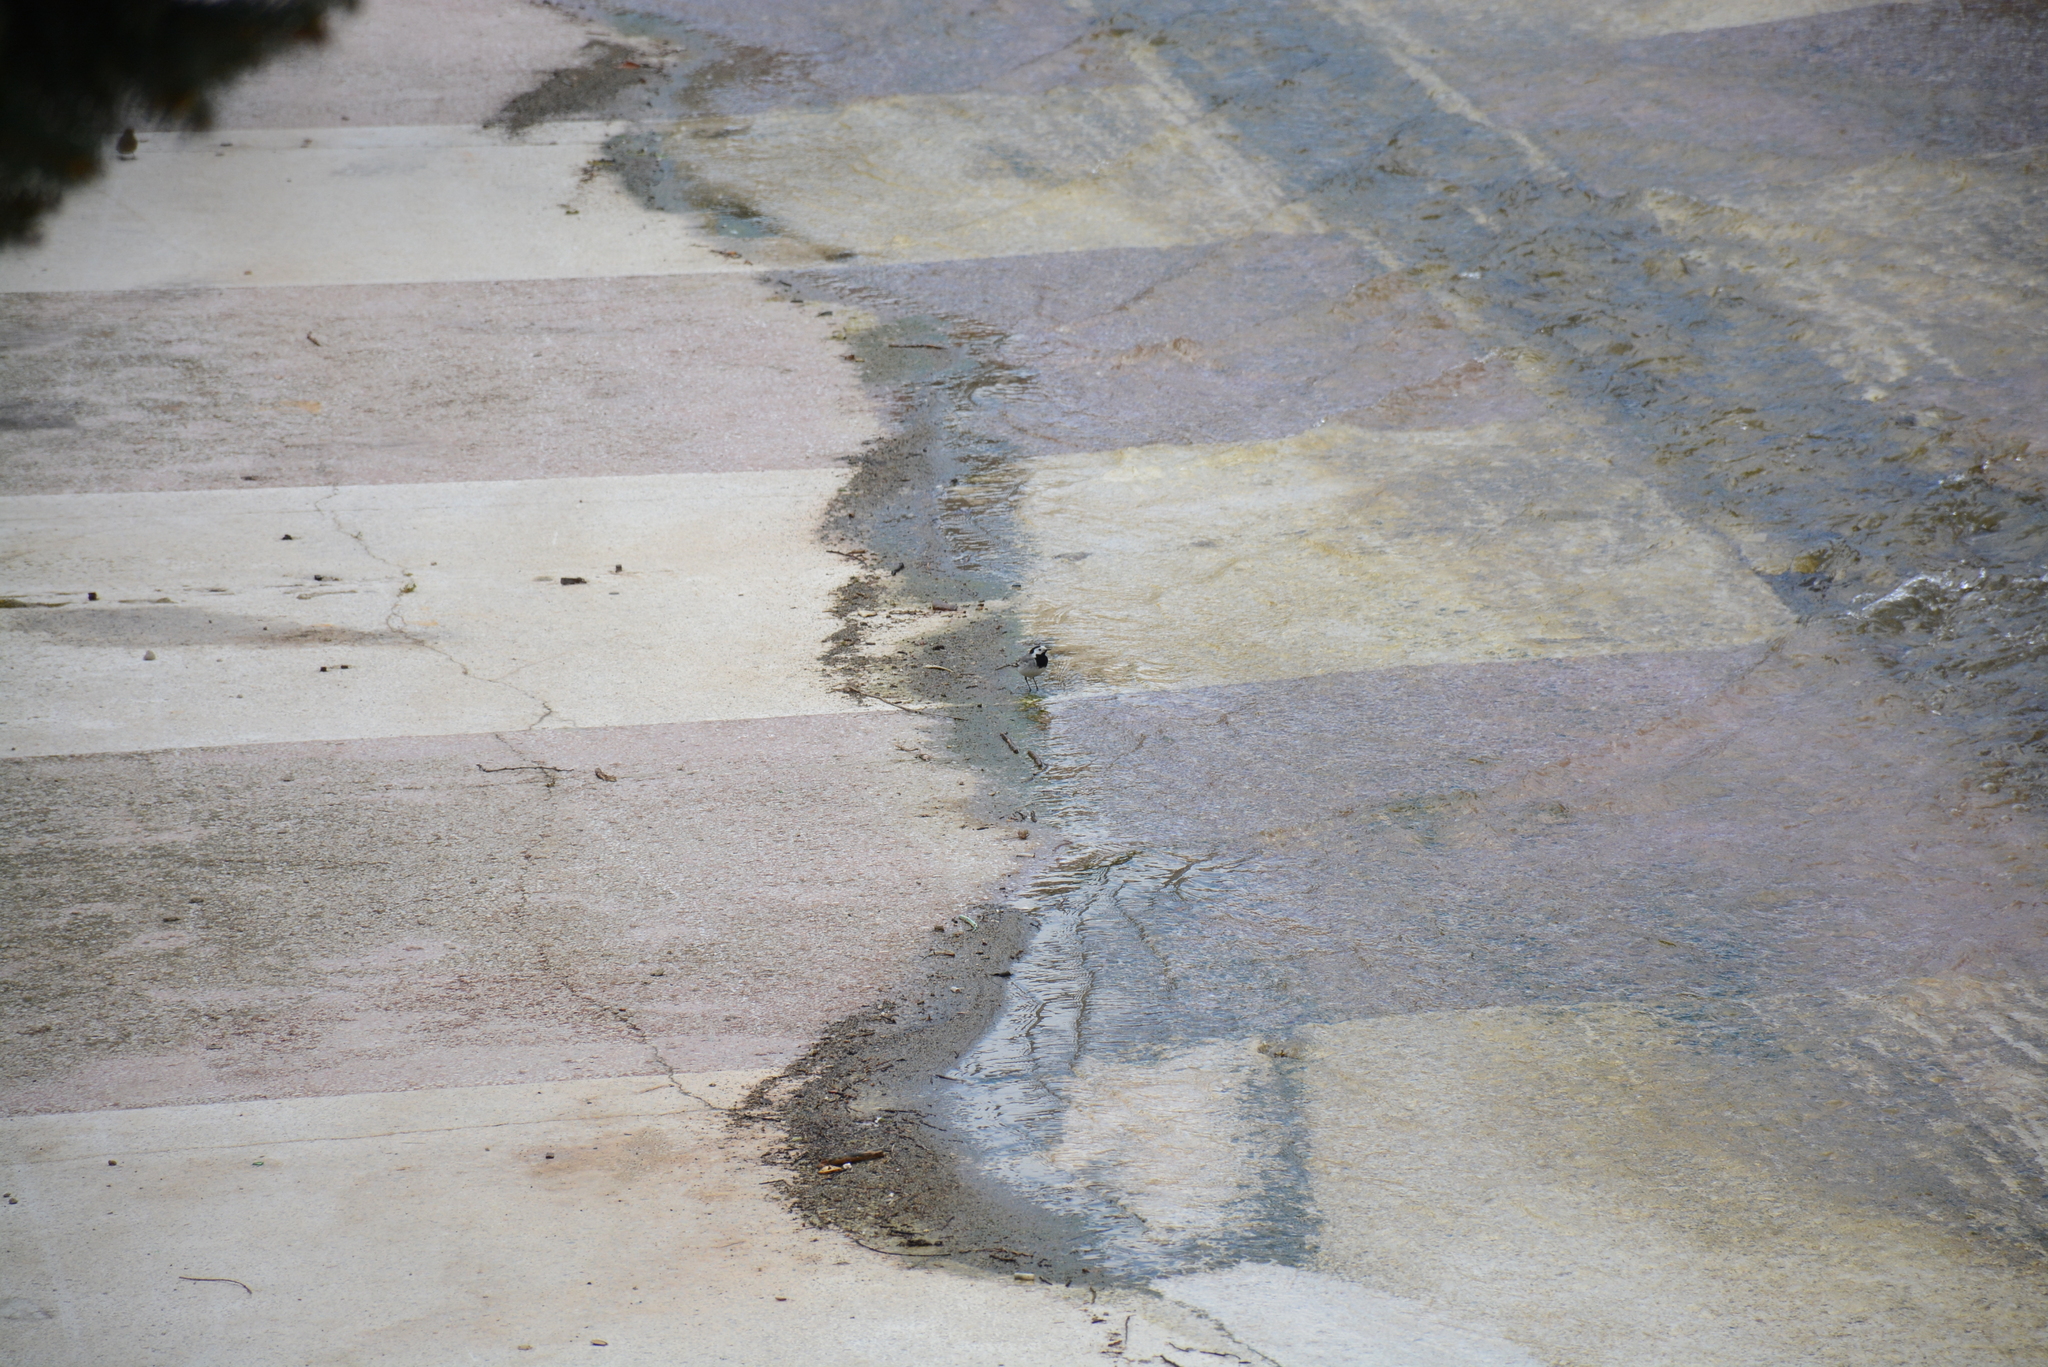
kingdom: Animalia
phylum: Chordata
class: Aves
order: Passeriformes
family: Motacillidae
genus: Motacilla
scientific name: Motacilla alba
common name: White wagtail
